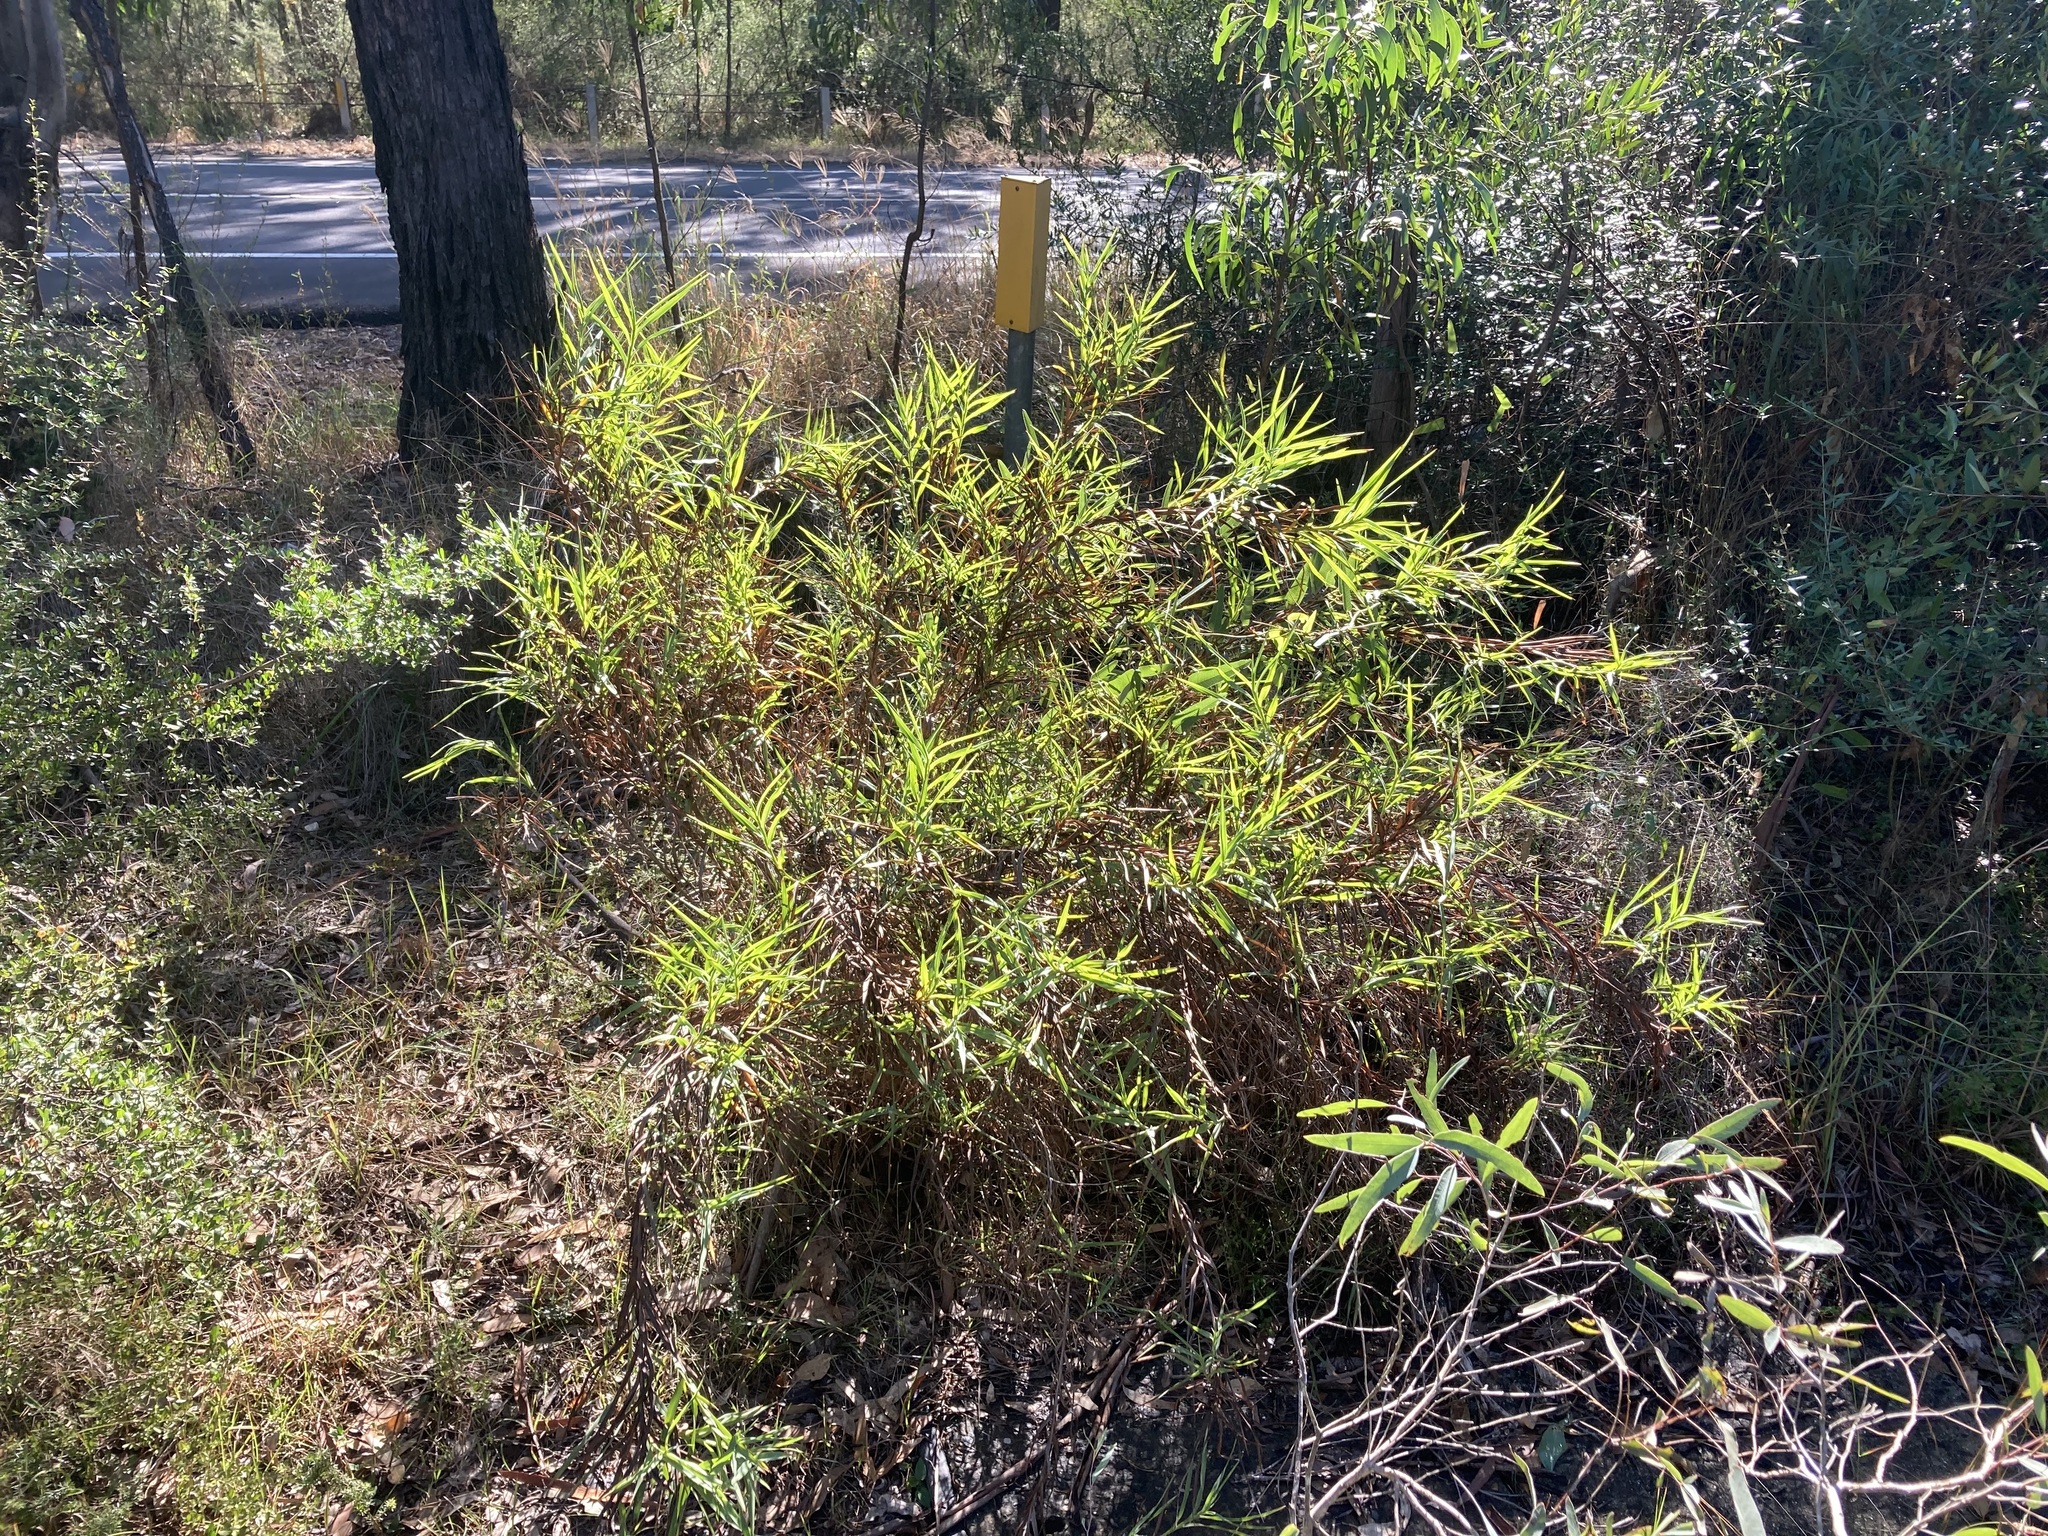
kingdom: Plantae
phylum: Tracheophyta
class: Liliopsida
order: Asparagales
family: Asphodelaceae
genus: Stypandra
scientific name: Stypandra glauca
